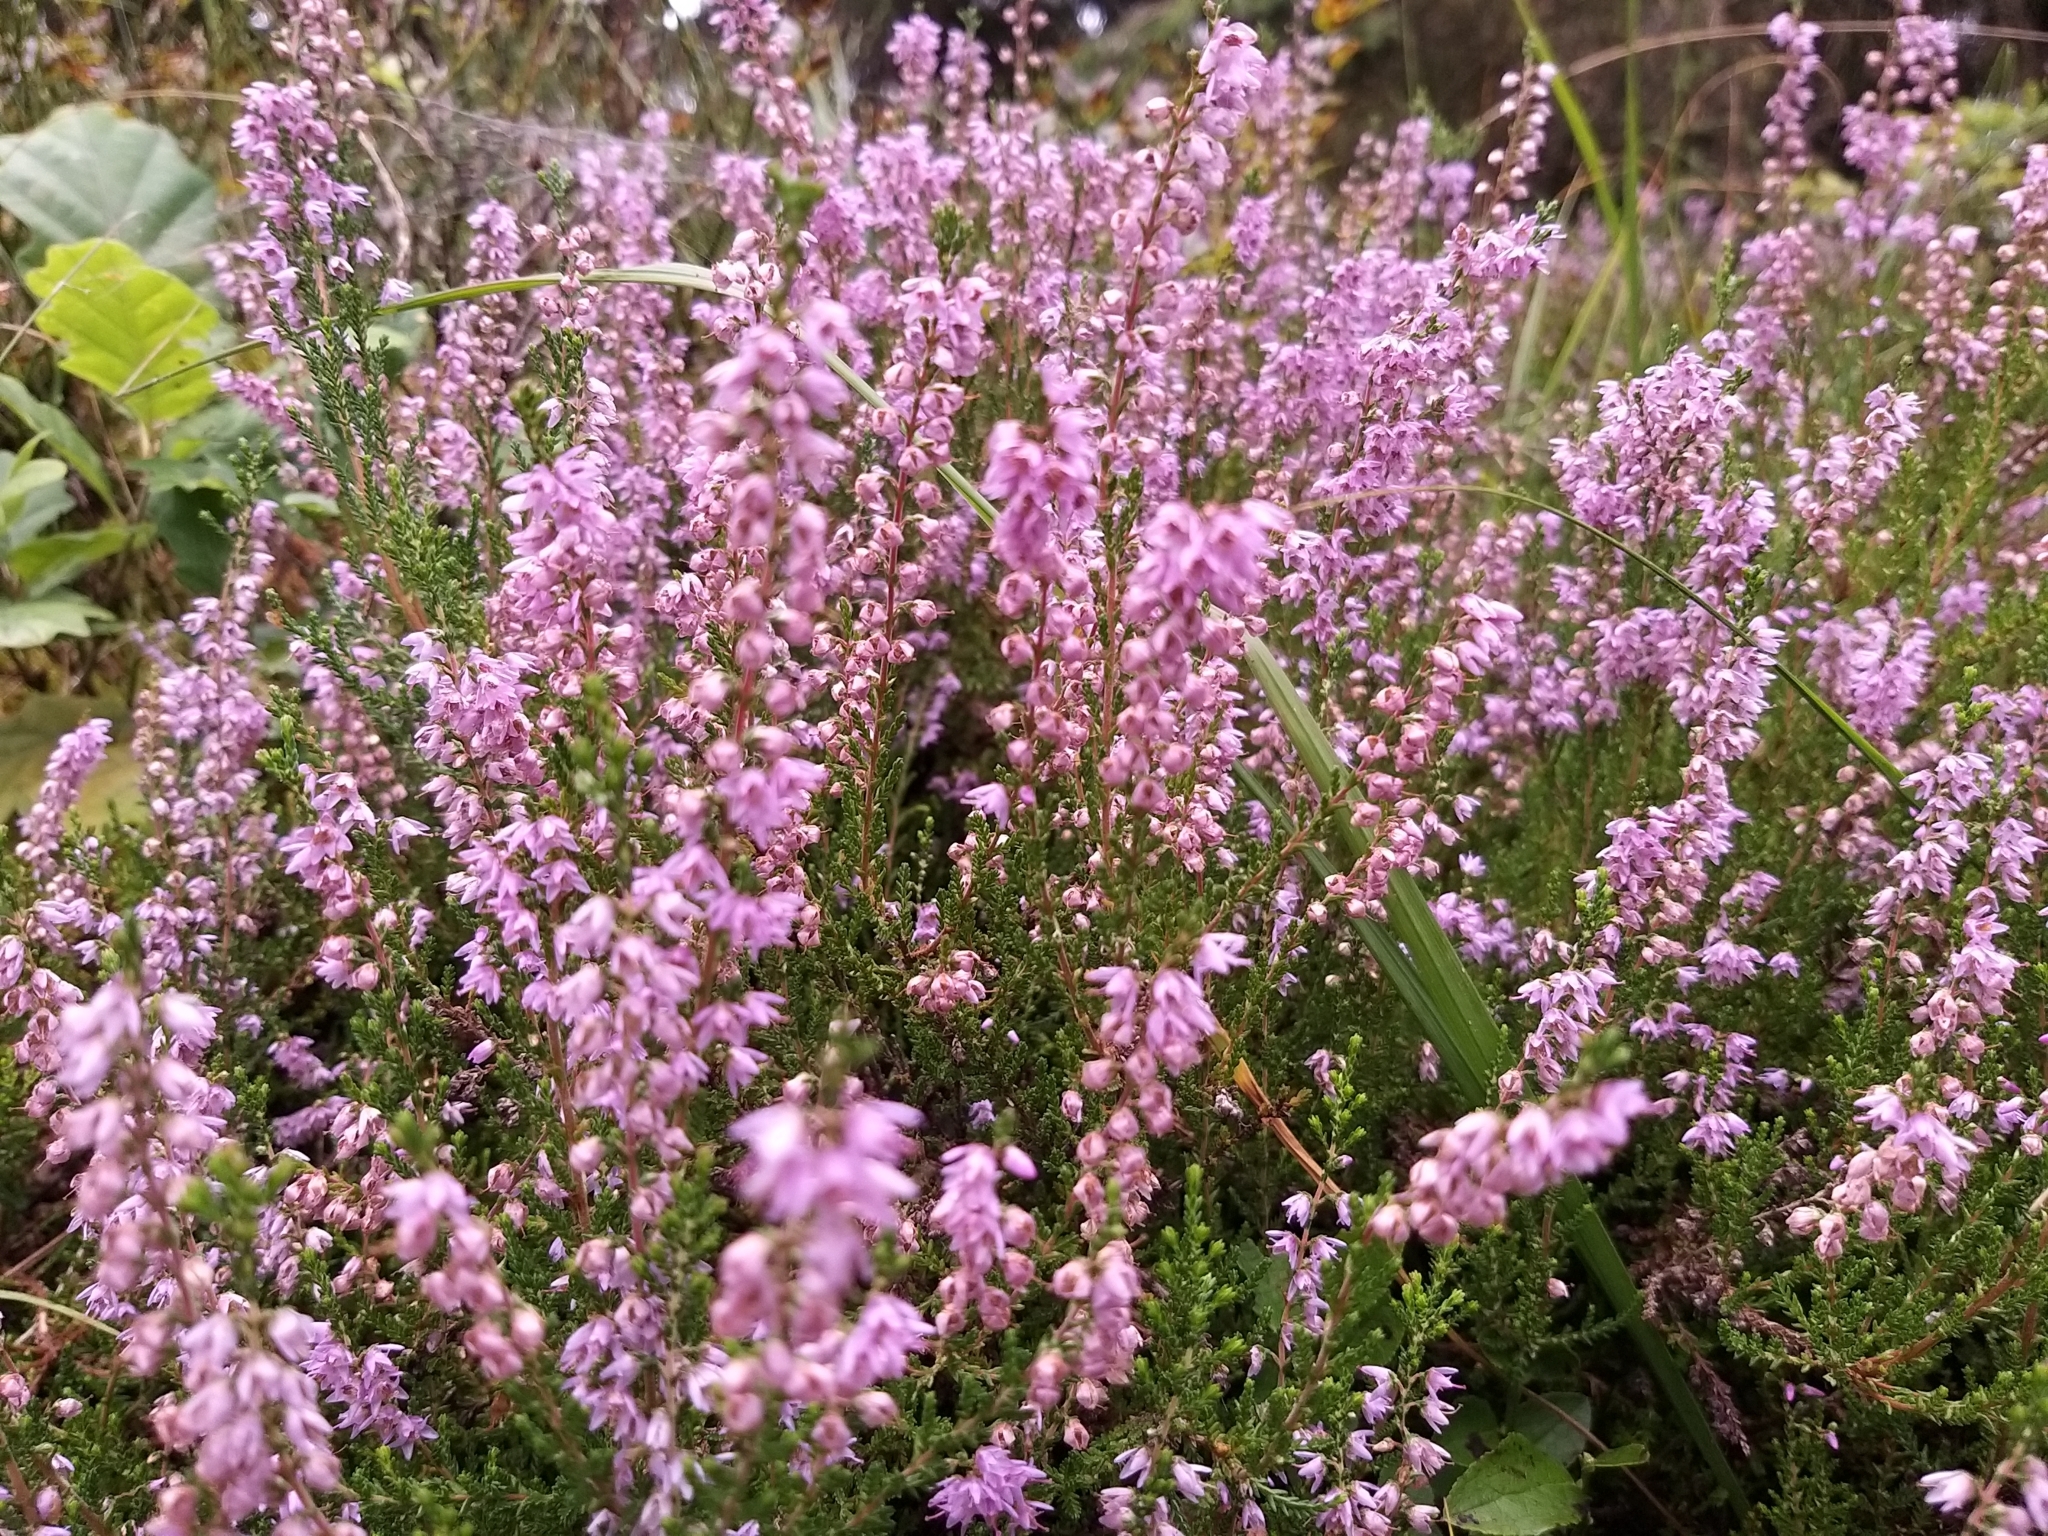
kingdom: Plantae
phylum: Tracheophyta
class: Magnoliopsida
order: Ericales
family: Ericaceae
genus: Calluna
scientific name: Calluna vulgaris
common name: Heather
